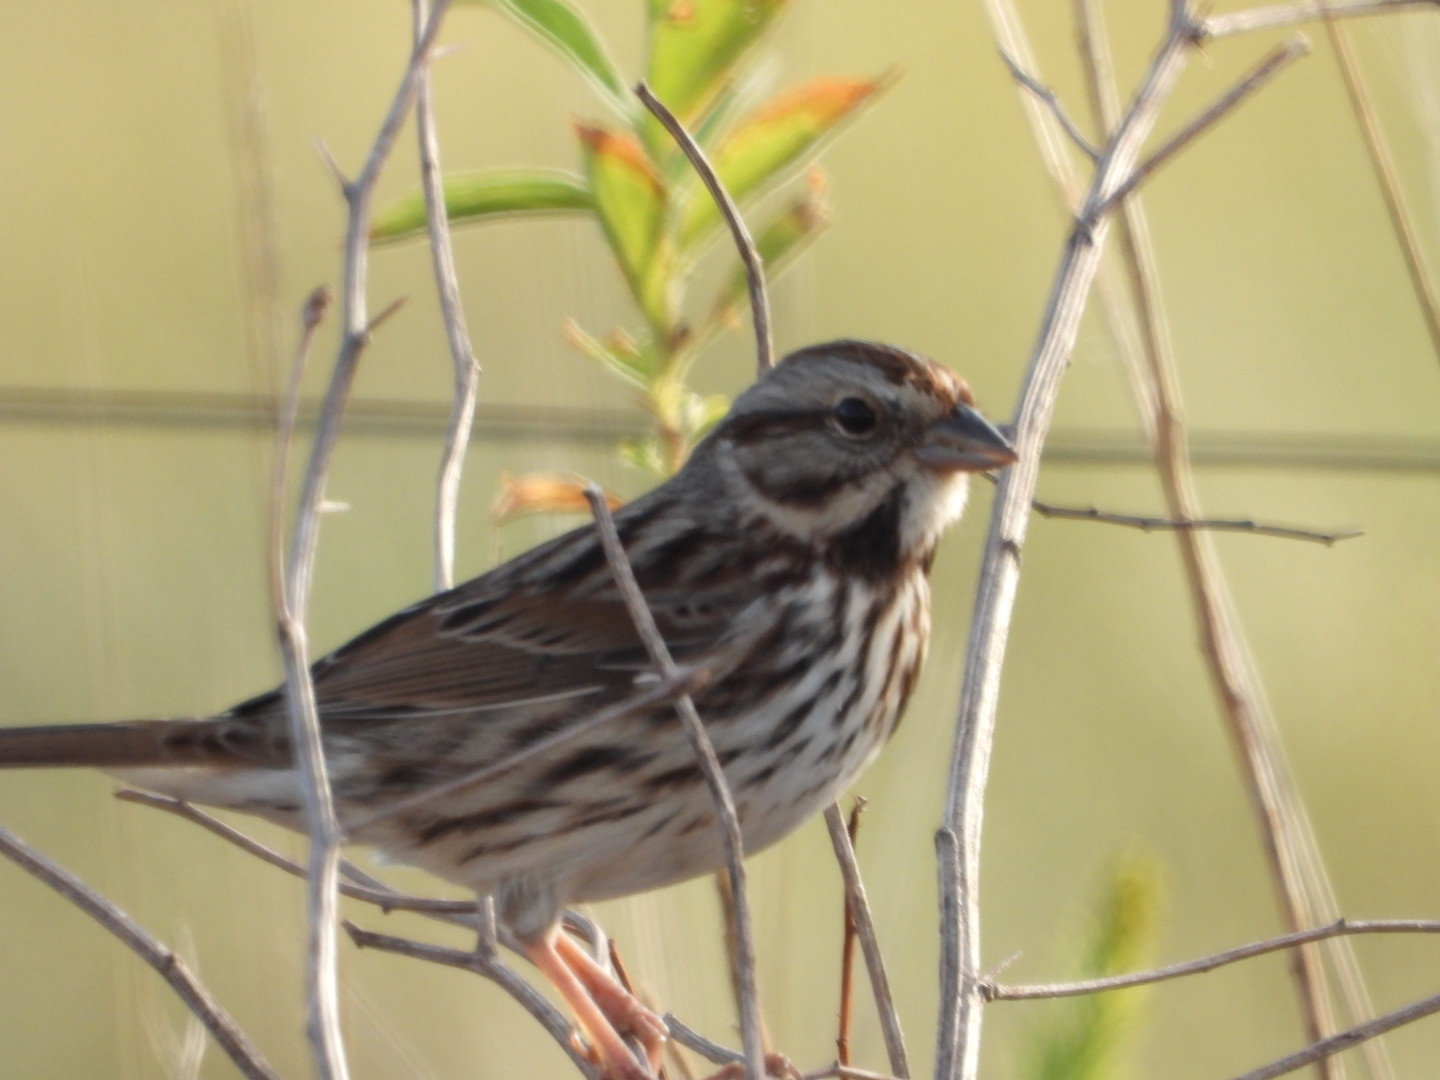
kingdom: Animalia
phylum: Chordata
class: Aves
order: Passeriformes
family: Passerellidae
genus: Melospiza
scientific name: Melospiza melodia
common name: Song sparrow
